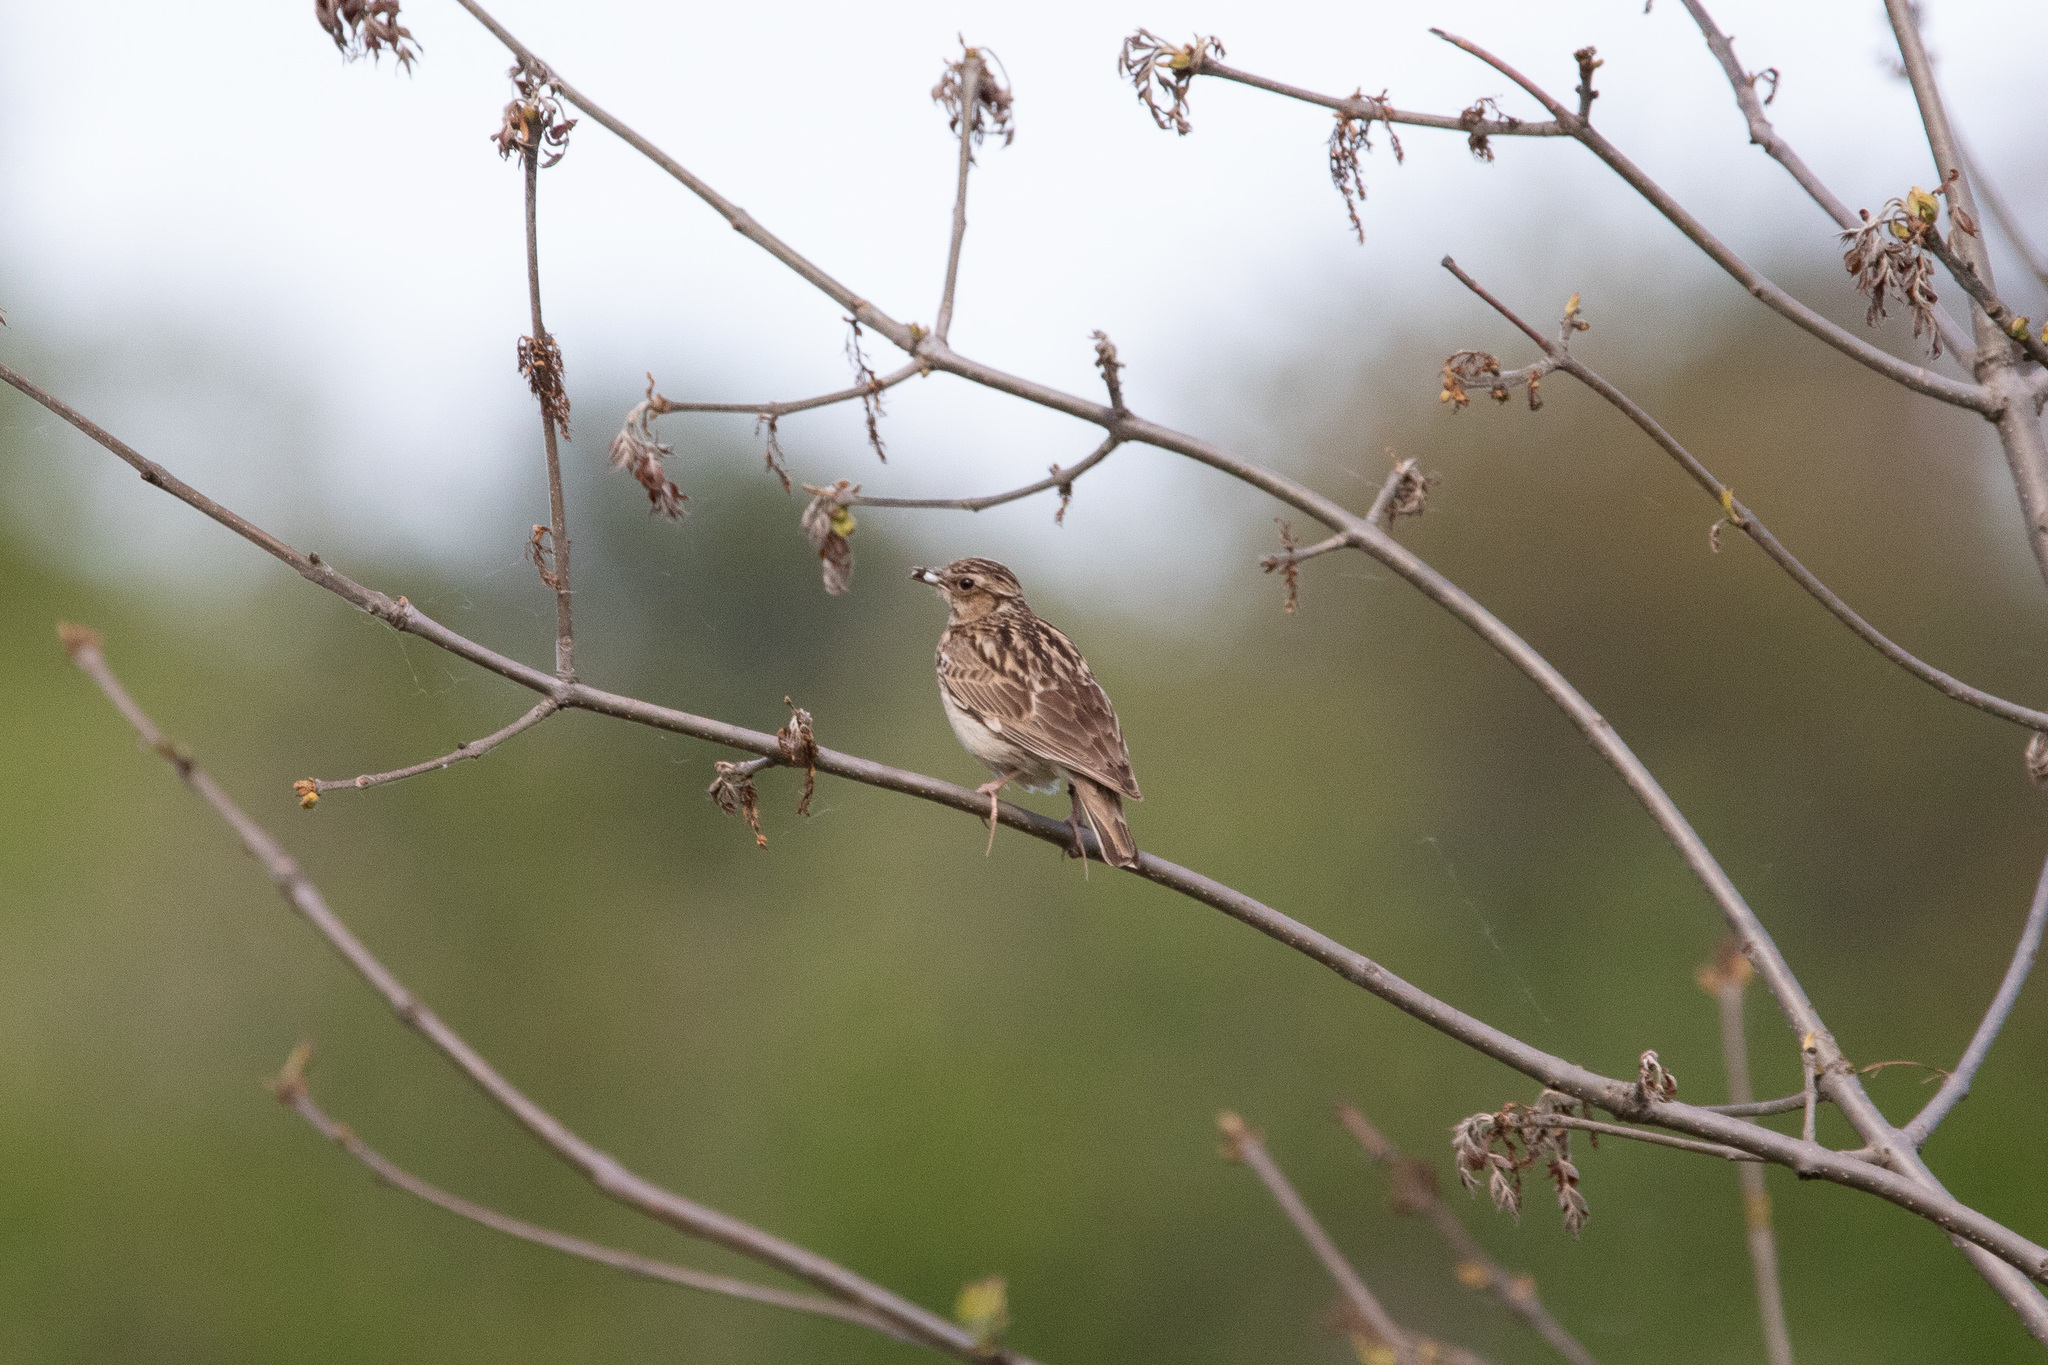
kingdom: Animalia
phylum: Chordata
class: Aves
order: Passeriformes
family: Alaudidae
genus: Lullula
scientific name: Lullula arborea
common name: Woodlark
